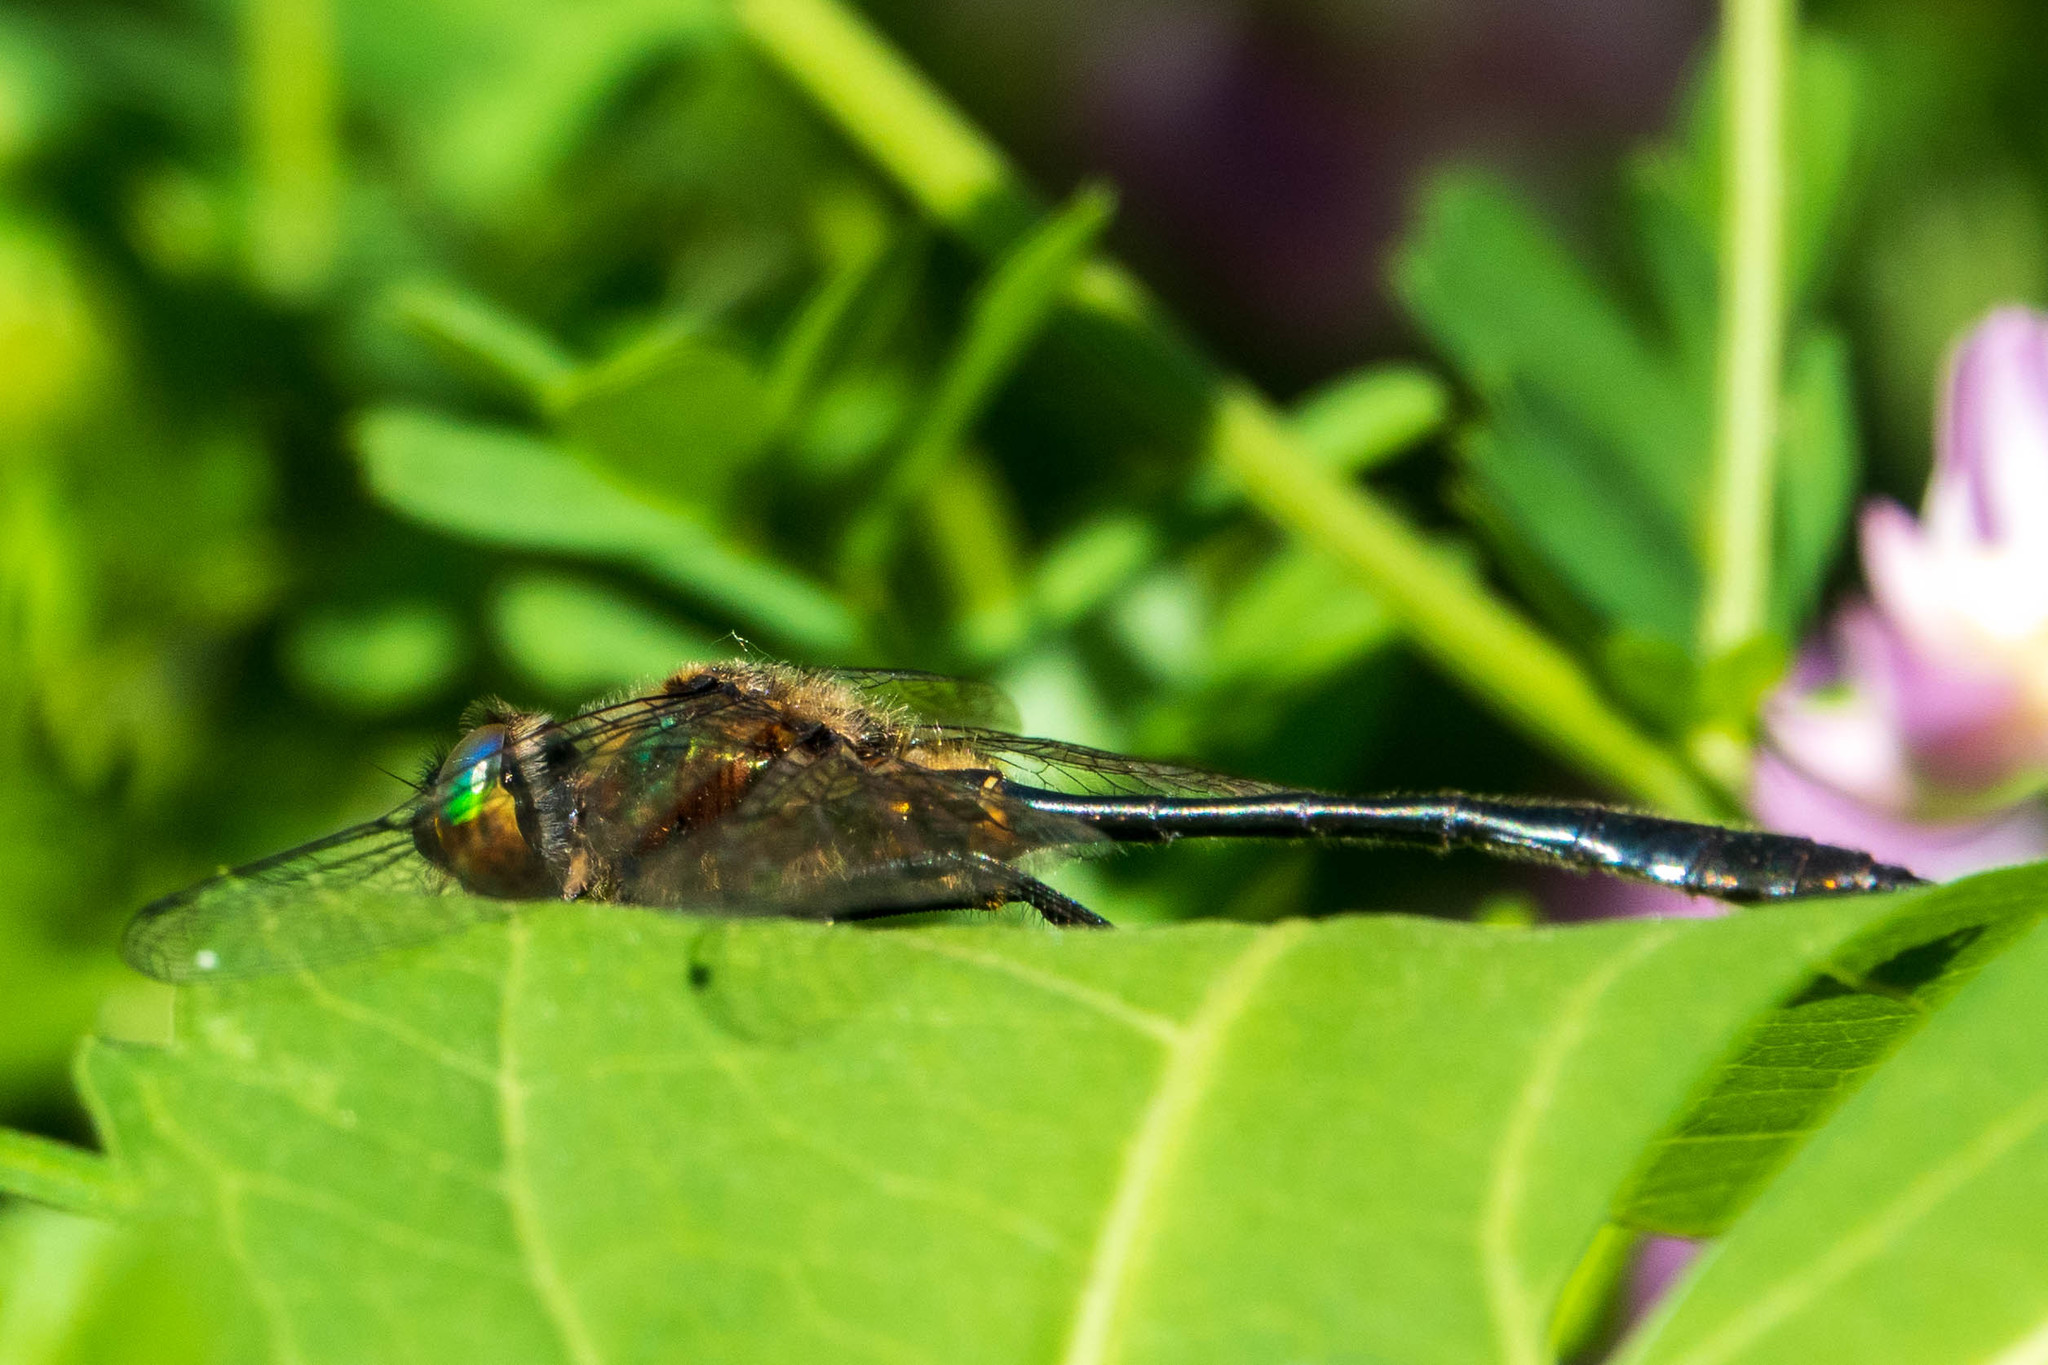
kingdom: Animalia
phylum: Arthropoda
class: Insecta
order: Odonata
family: Corduliidae
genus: Dorocordulia
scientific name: Dorocordulia libera
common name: Racket-tailed emerald
